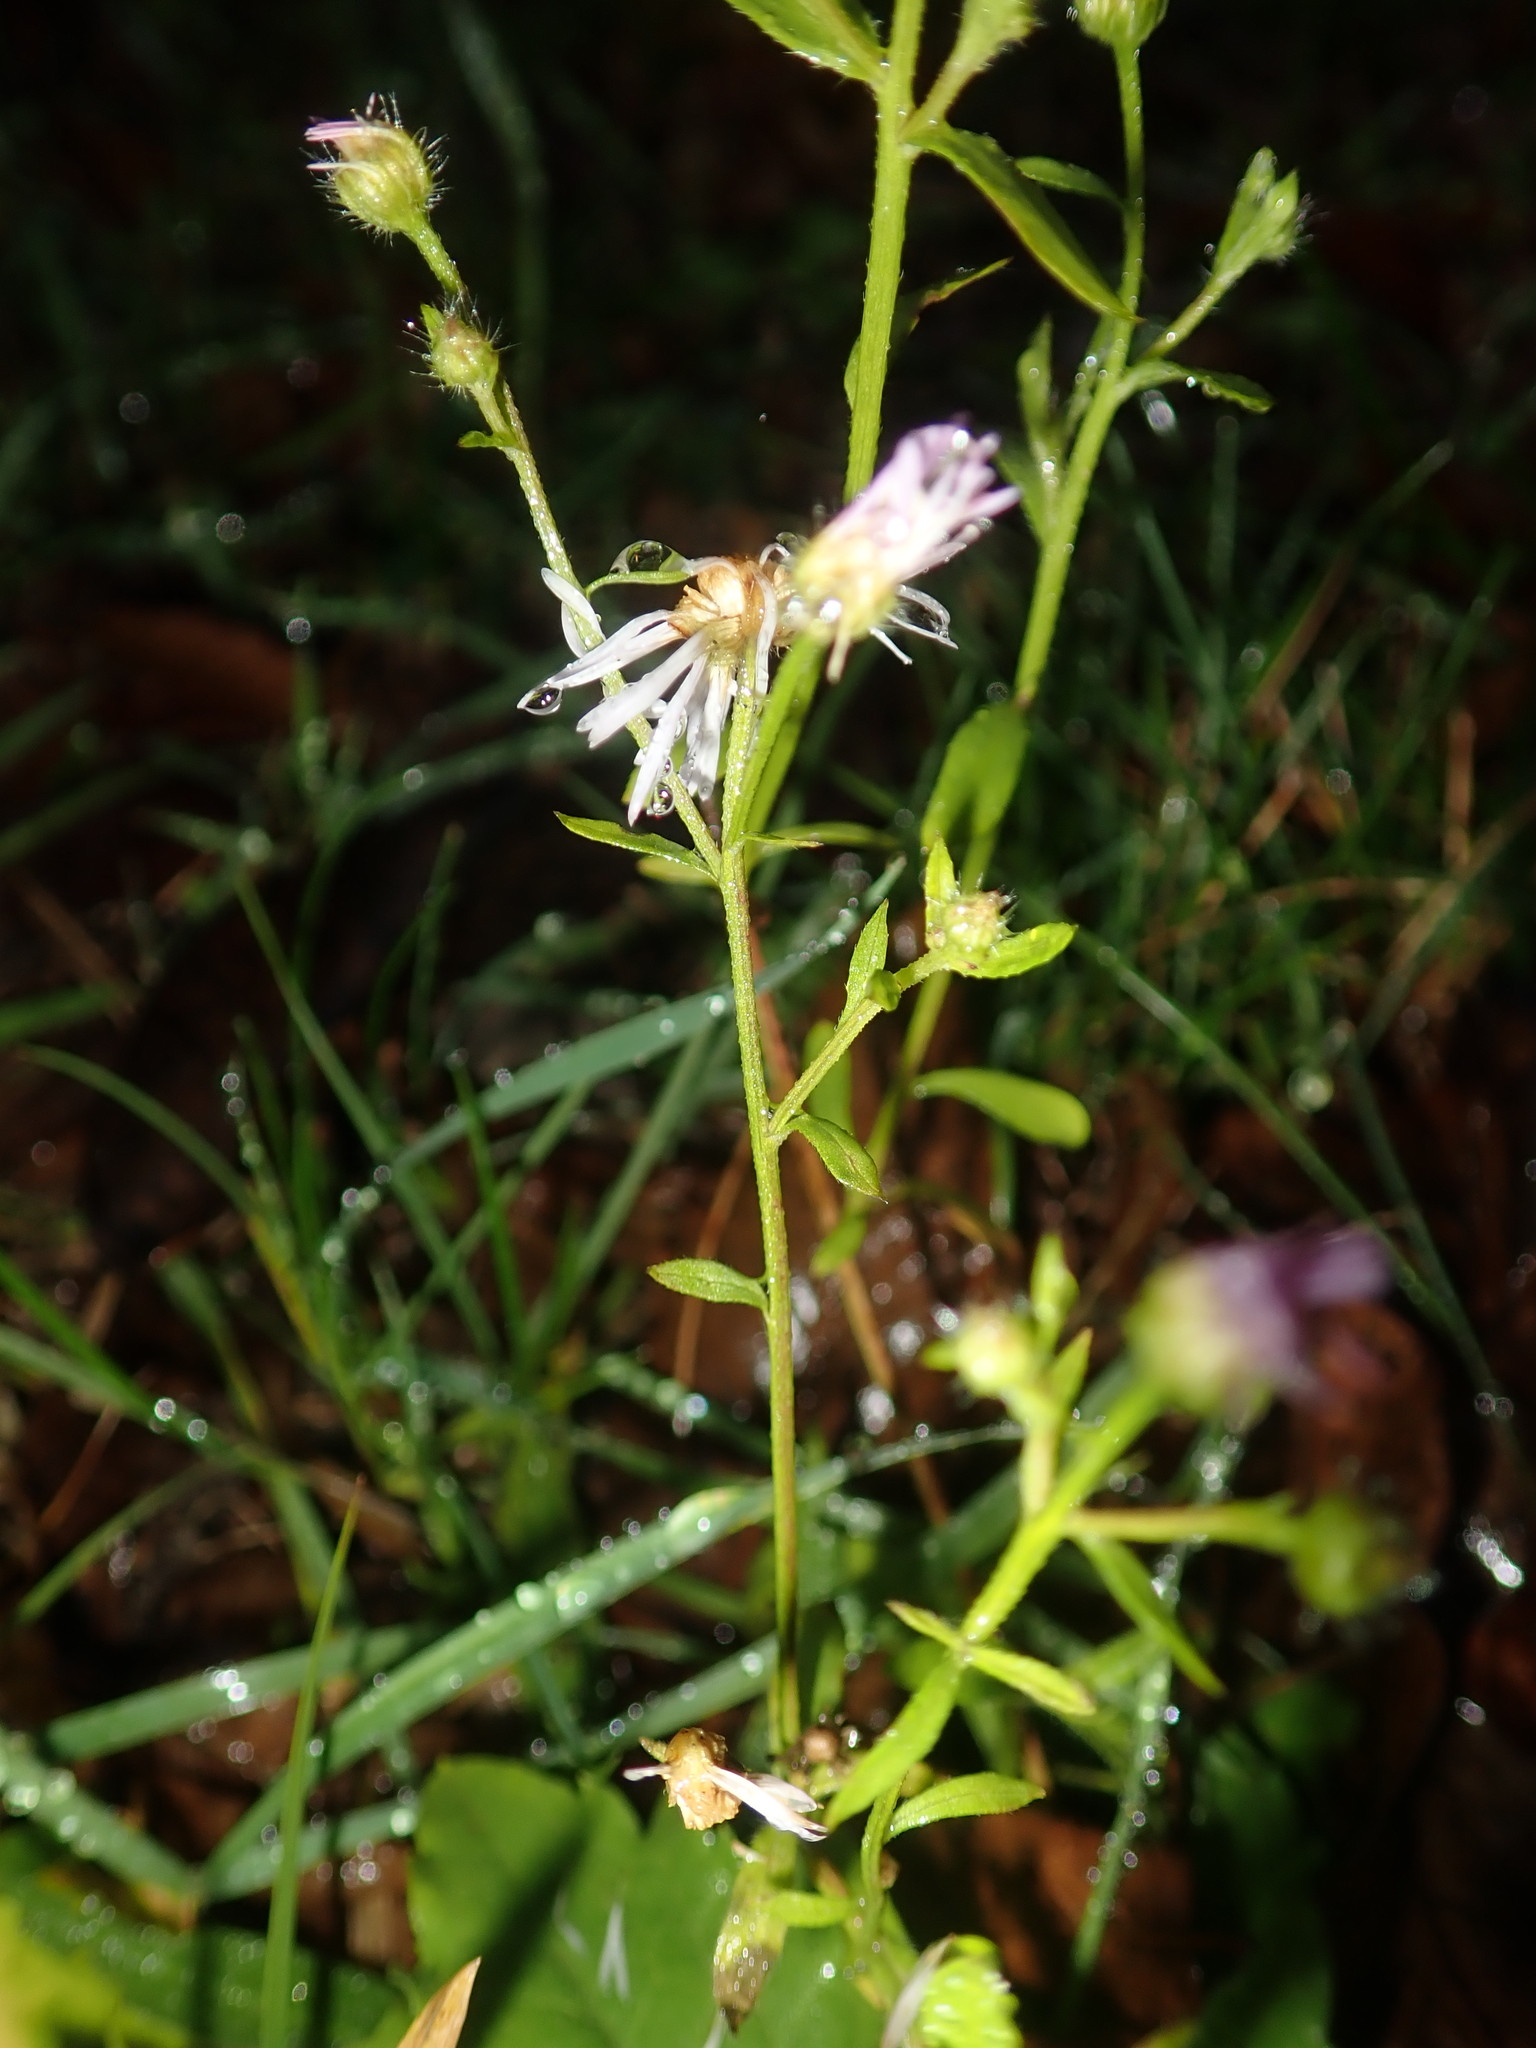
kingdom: Plantae
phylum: Tracheophyta
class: Magnoliopsida
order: Asterales
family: Asteraceae
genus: Erigeron
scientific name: Erigeron annuus
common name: Tall fleabane
